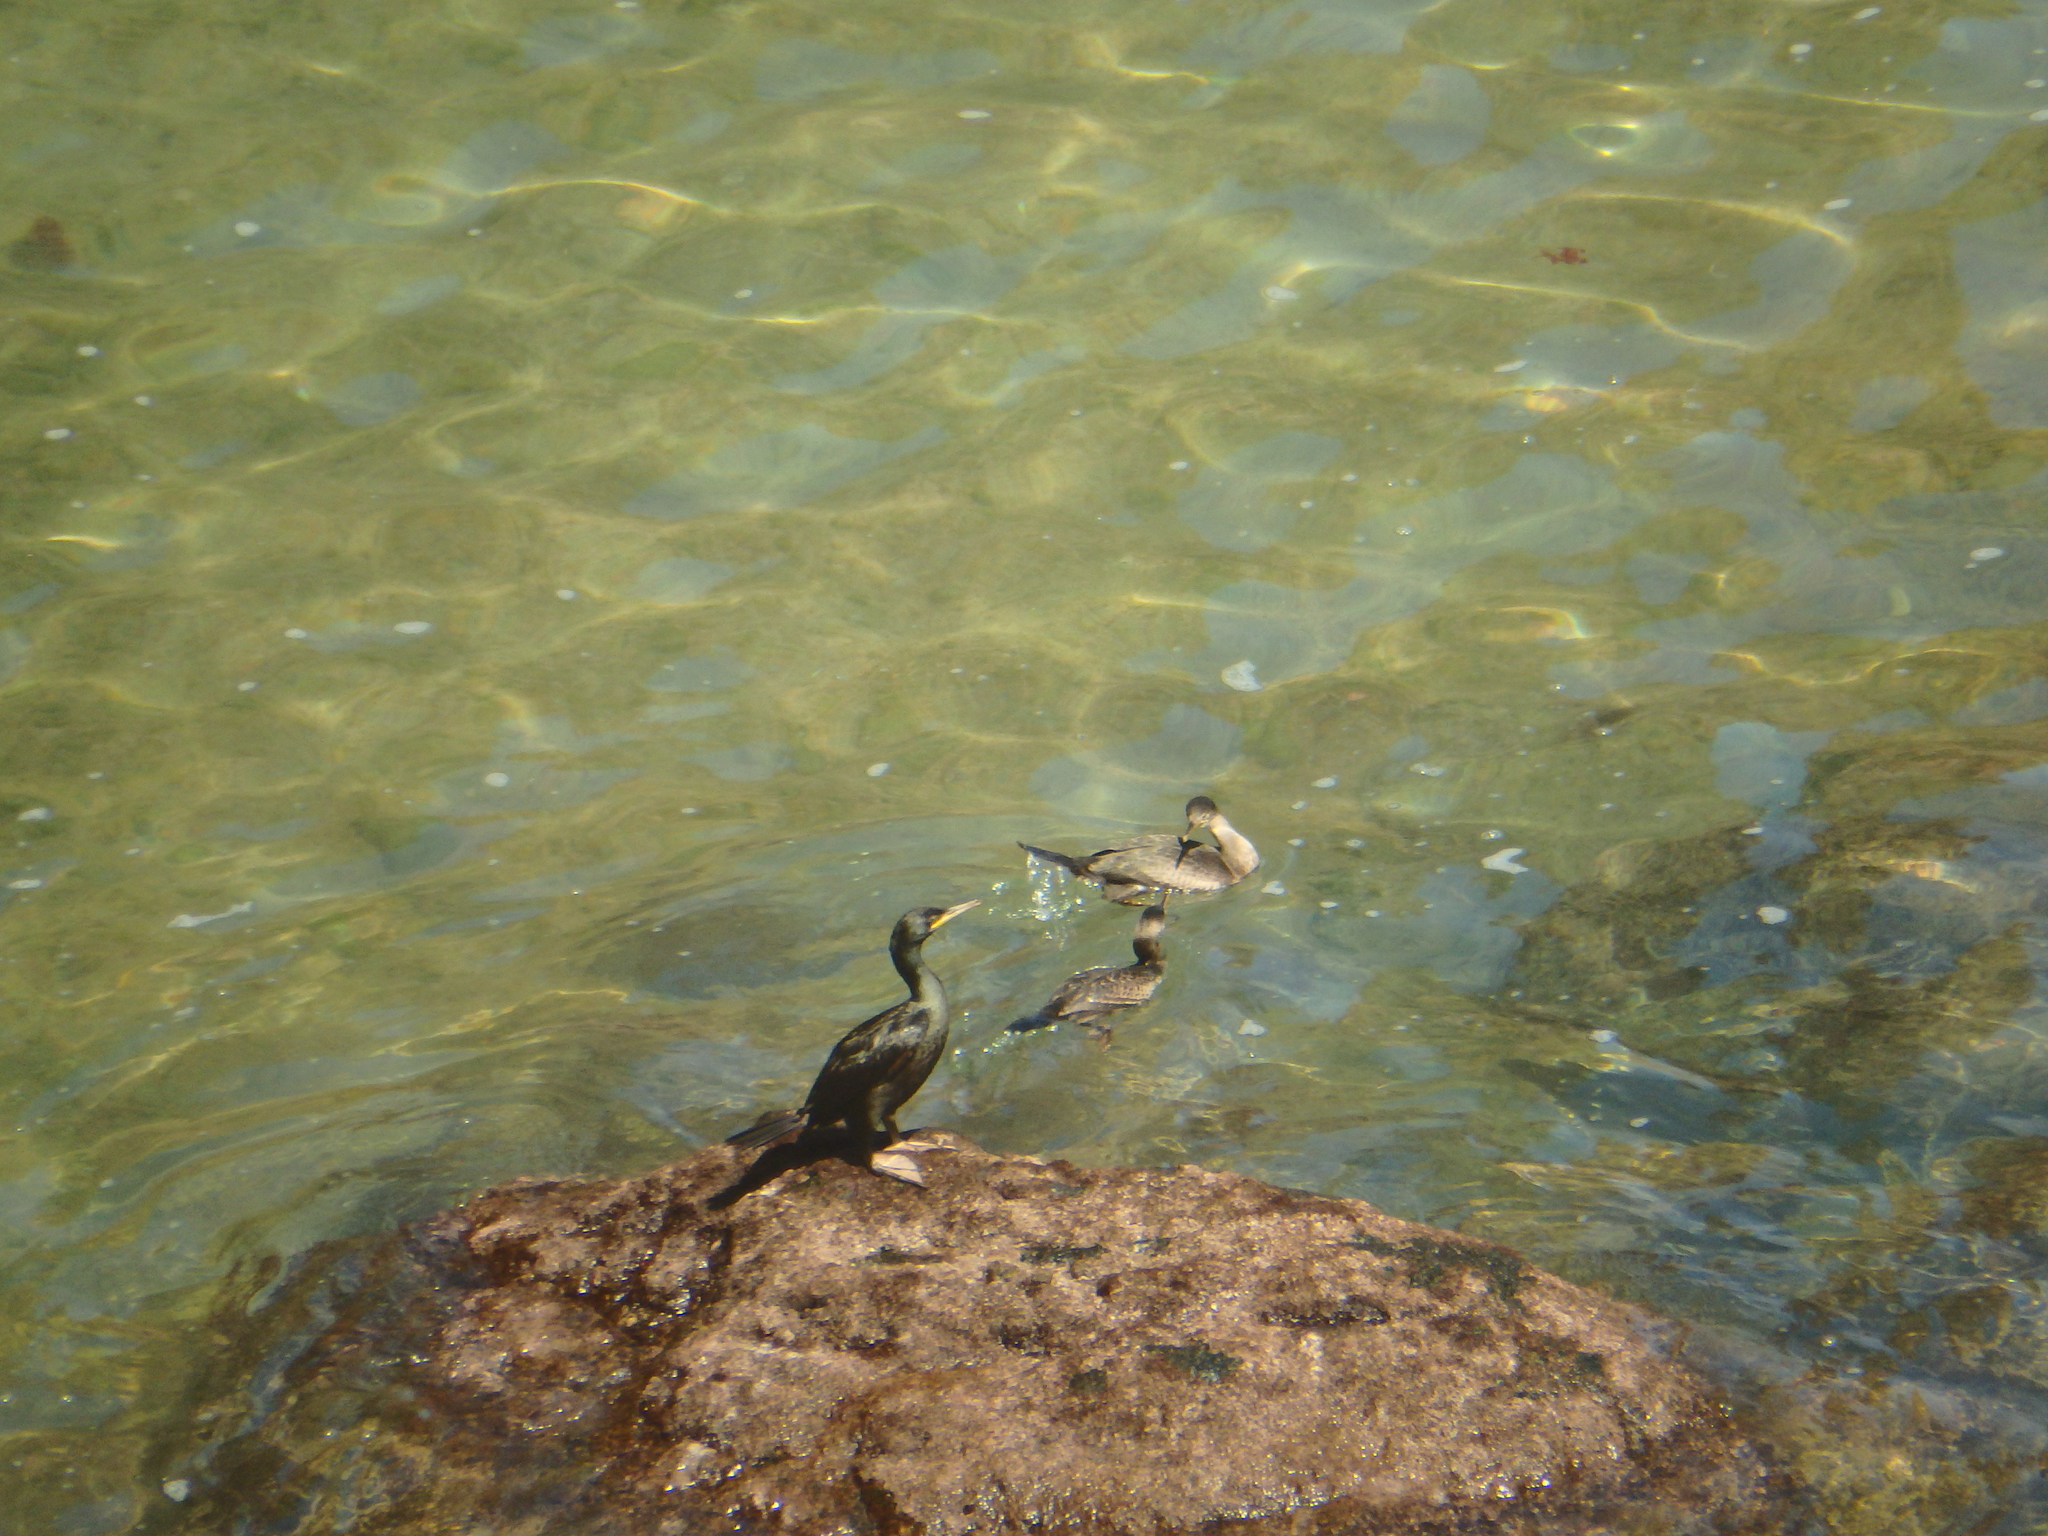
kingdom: Animalia
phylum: Chordata
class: Aves
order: Suliformes
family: Phalacrocoracidae
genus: Phalacrocorax
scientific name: Phalacrocorax aristotelis
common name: European shag
